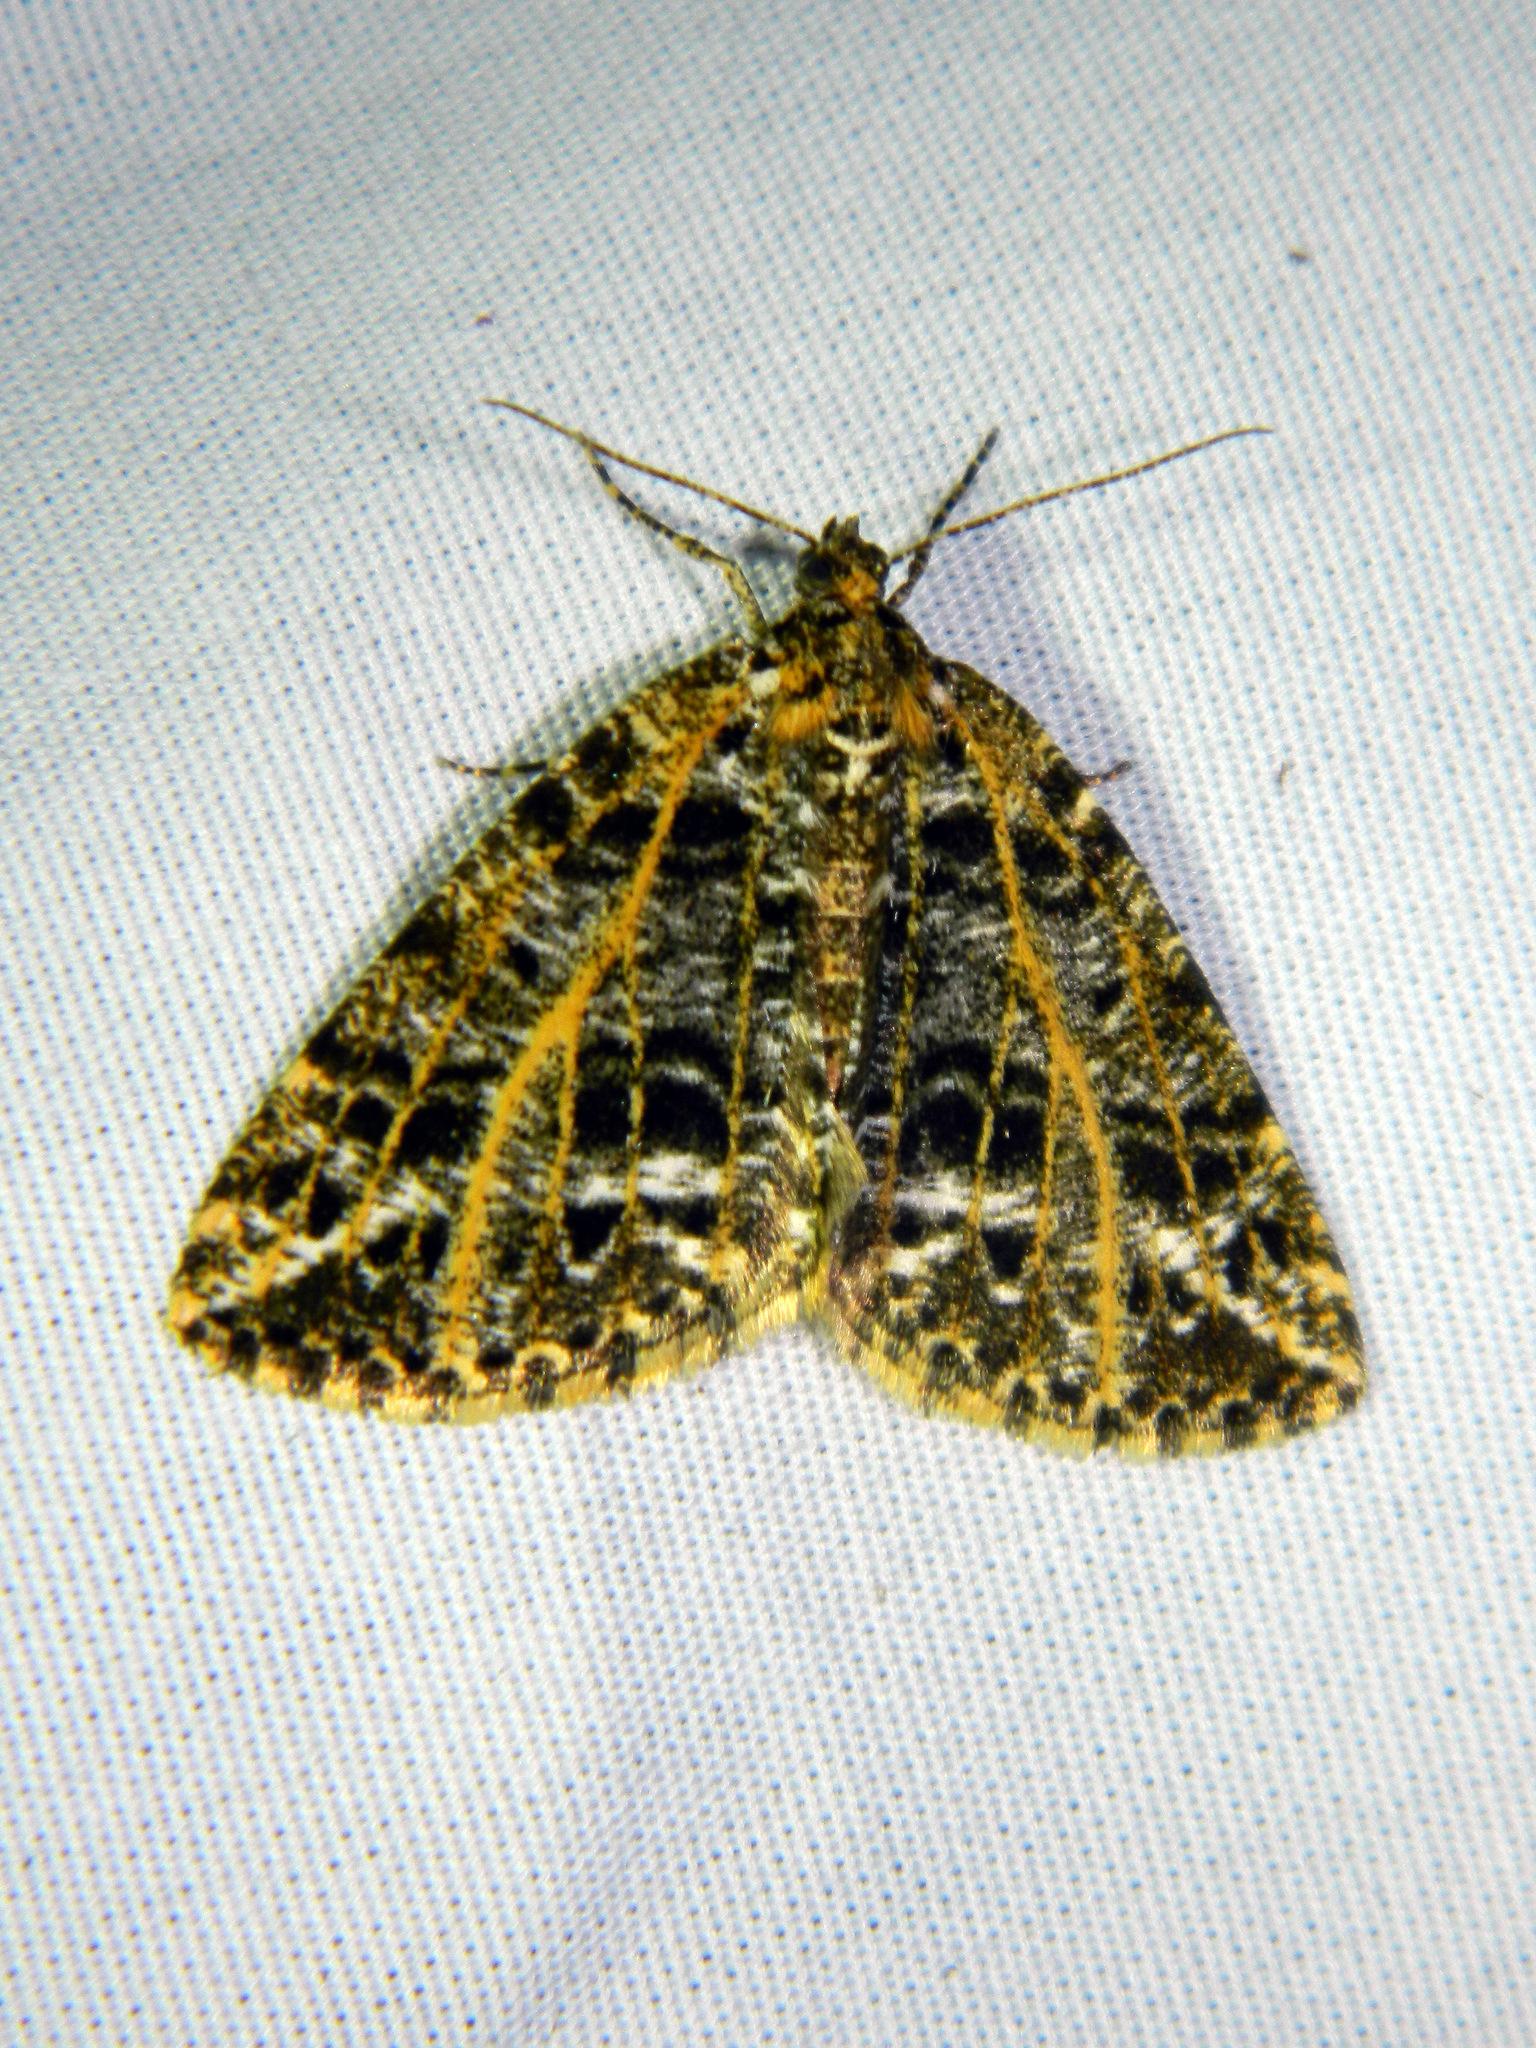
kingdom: Animalia
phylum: Arthropoda
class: Insecta
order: Lepidoptera
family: Geometridae
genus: Orthofidonia
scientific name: Orthofidonia flavivenata
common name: Yellow-veined geometer moth
